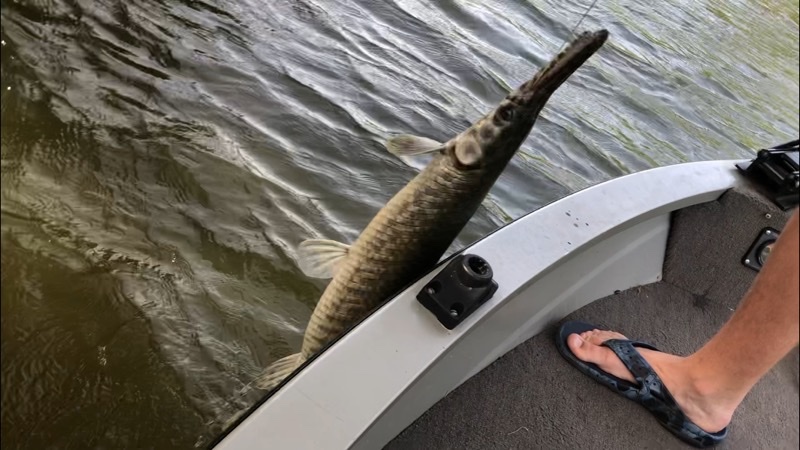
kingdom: Animalia
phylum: Chordata
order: Lepisosteiformes
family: Lepisosteidae
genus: Lepisosteus
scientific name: Lepisosteus oculatus
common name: Spotted gar
